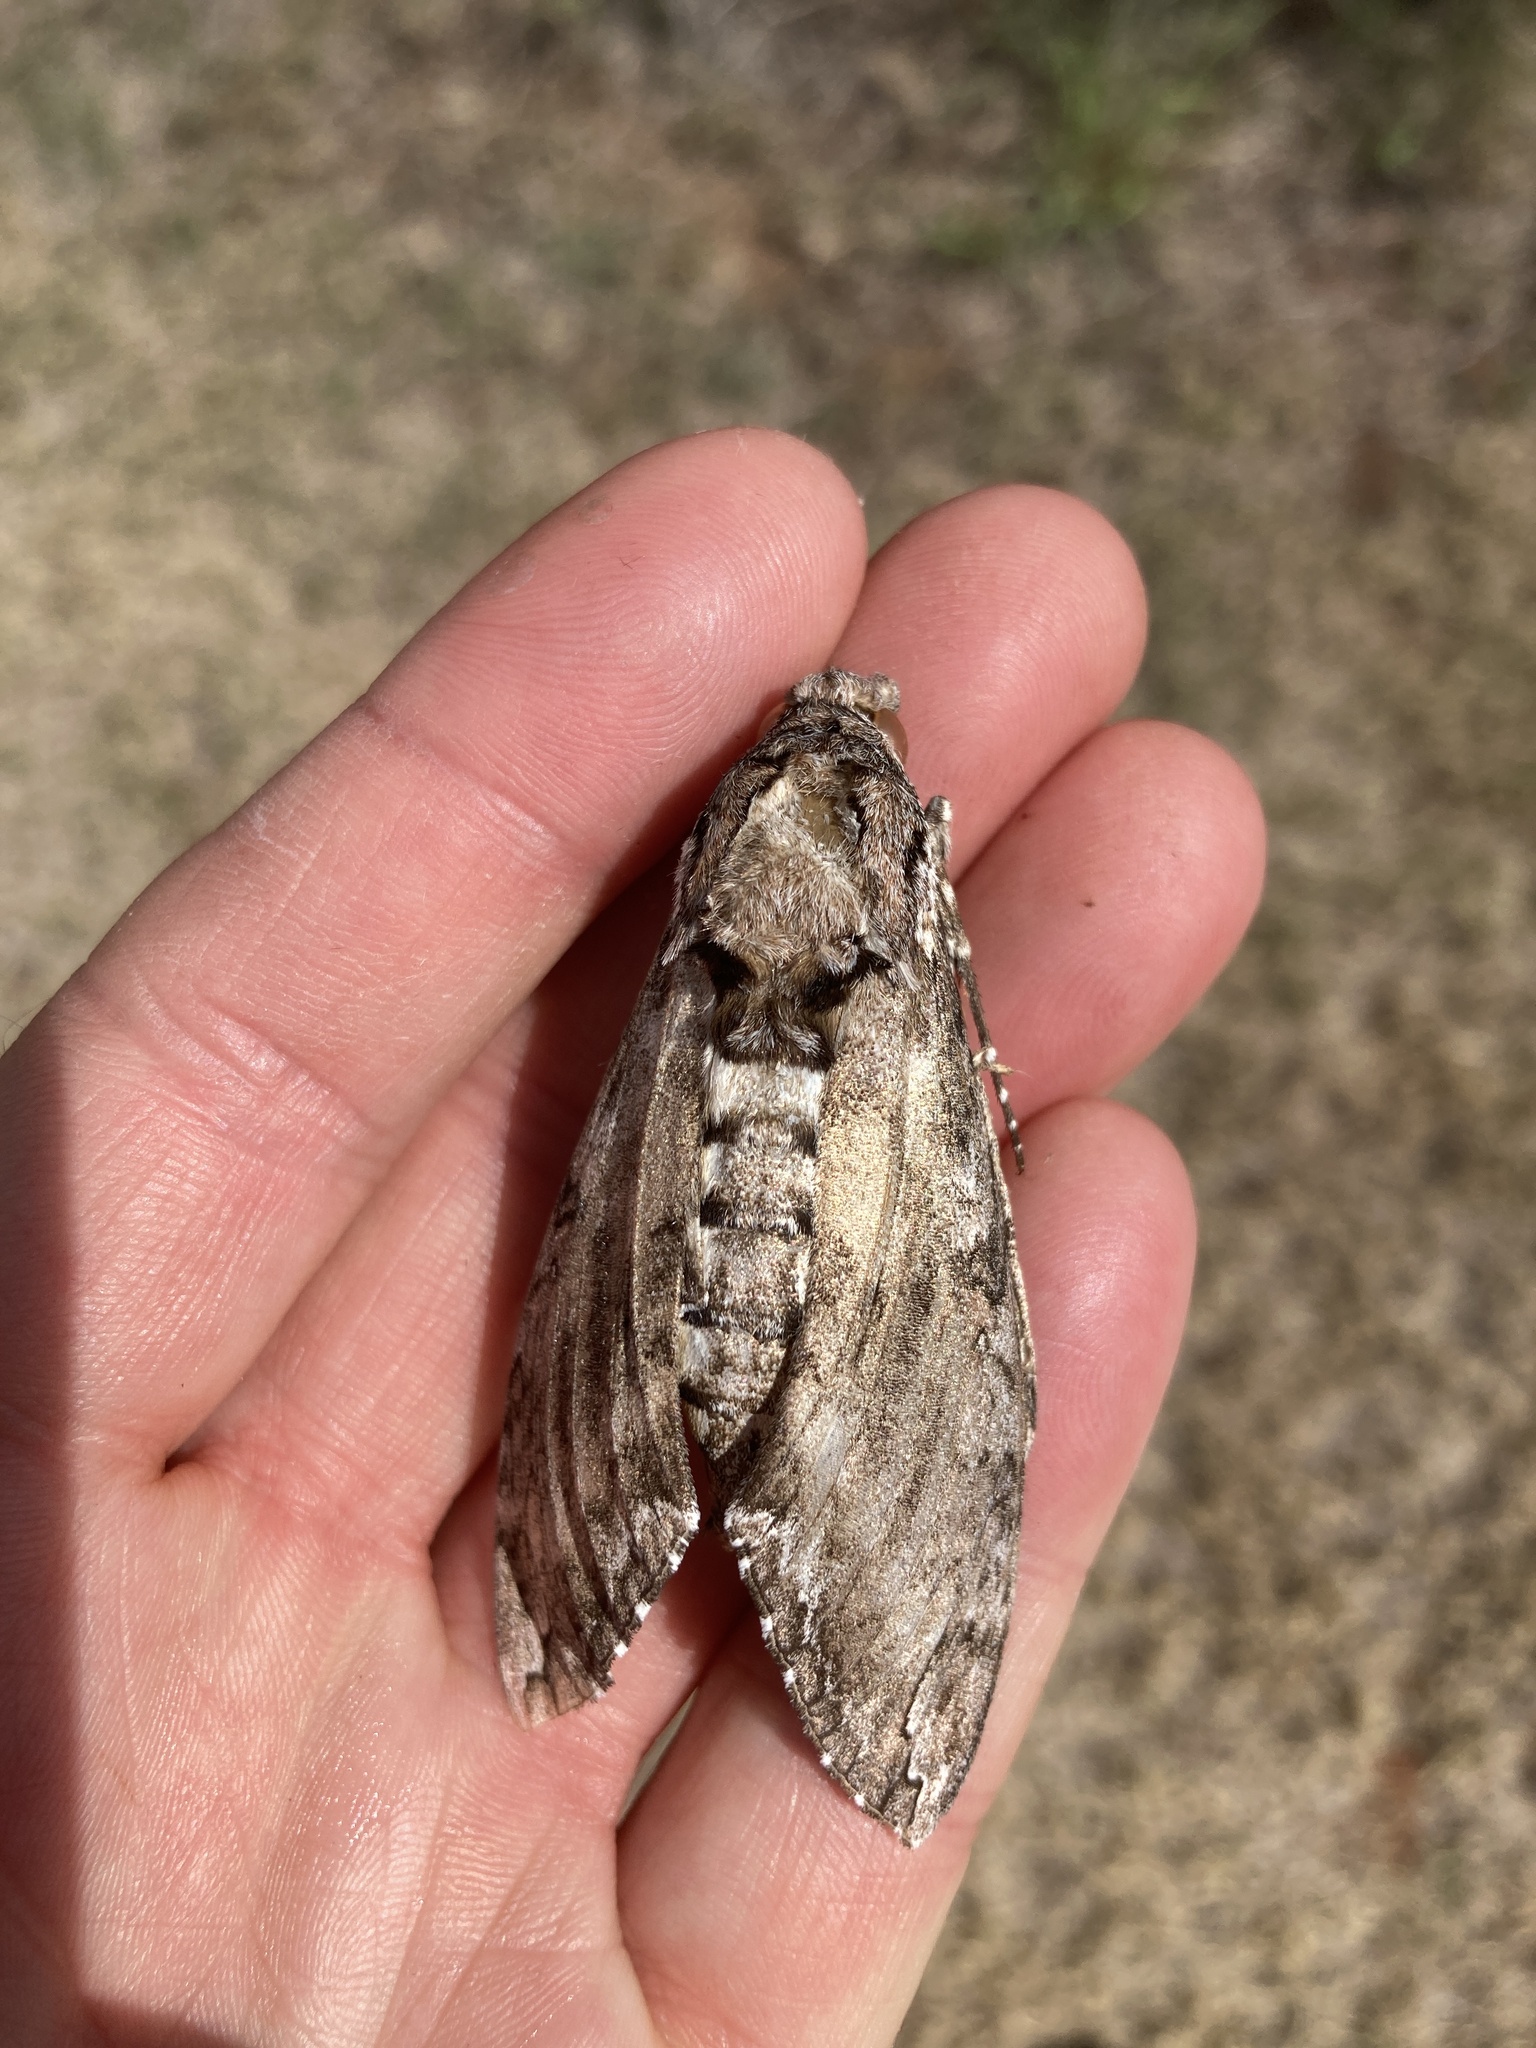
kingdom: Animalia
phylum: Arthropoda
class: Insecta
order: Lepidoptera
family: Sphingidae
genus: Manduca
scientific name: Manduca sexta
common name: Carolina sphinx
